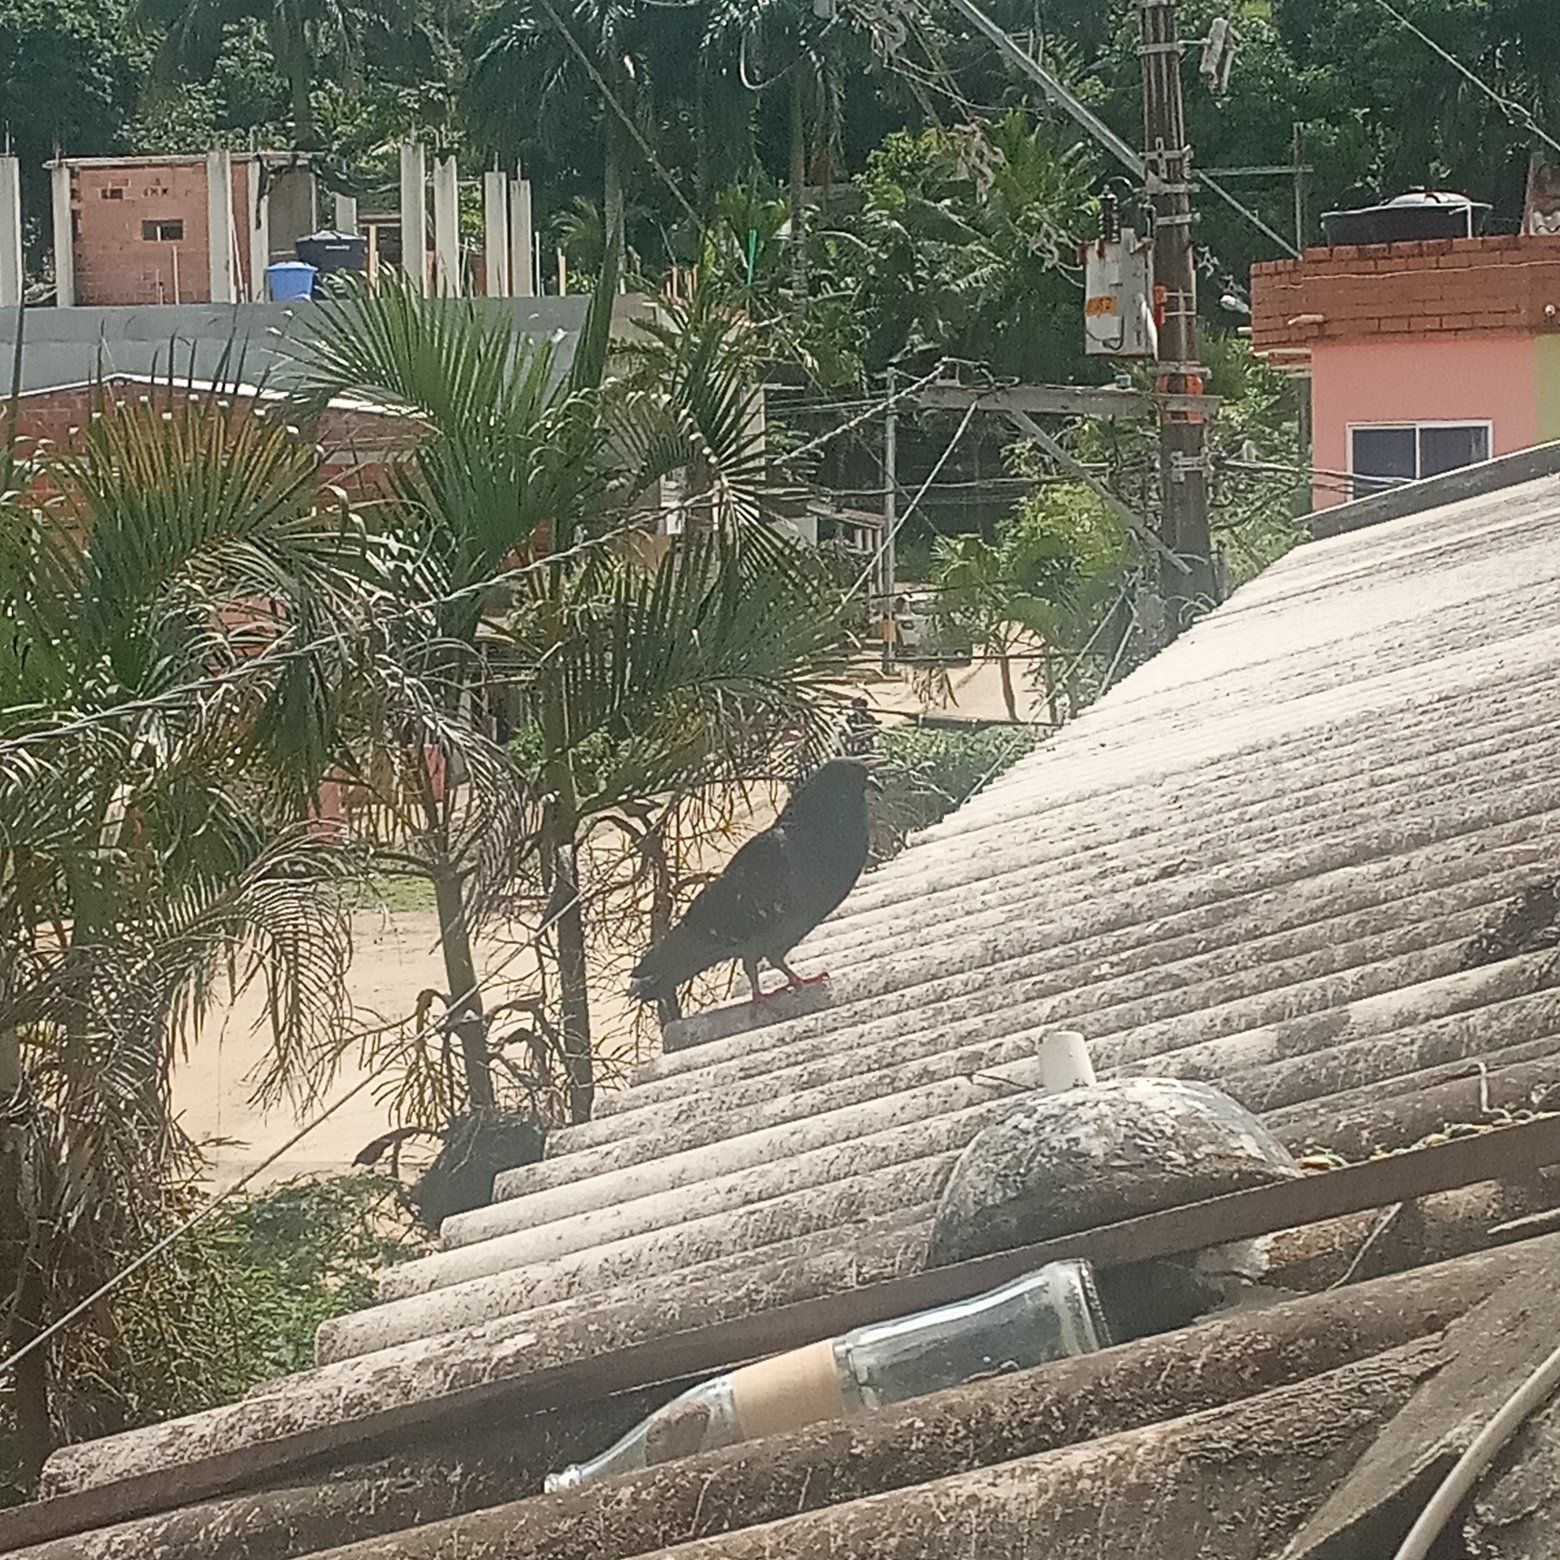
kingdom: Animalia
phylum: Chordata
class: Aves
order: Columbiformes
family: Columbidae
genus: Columba
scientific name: Columba livia
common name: Rock pigeon
